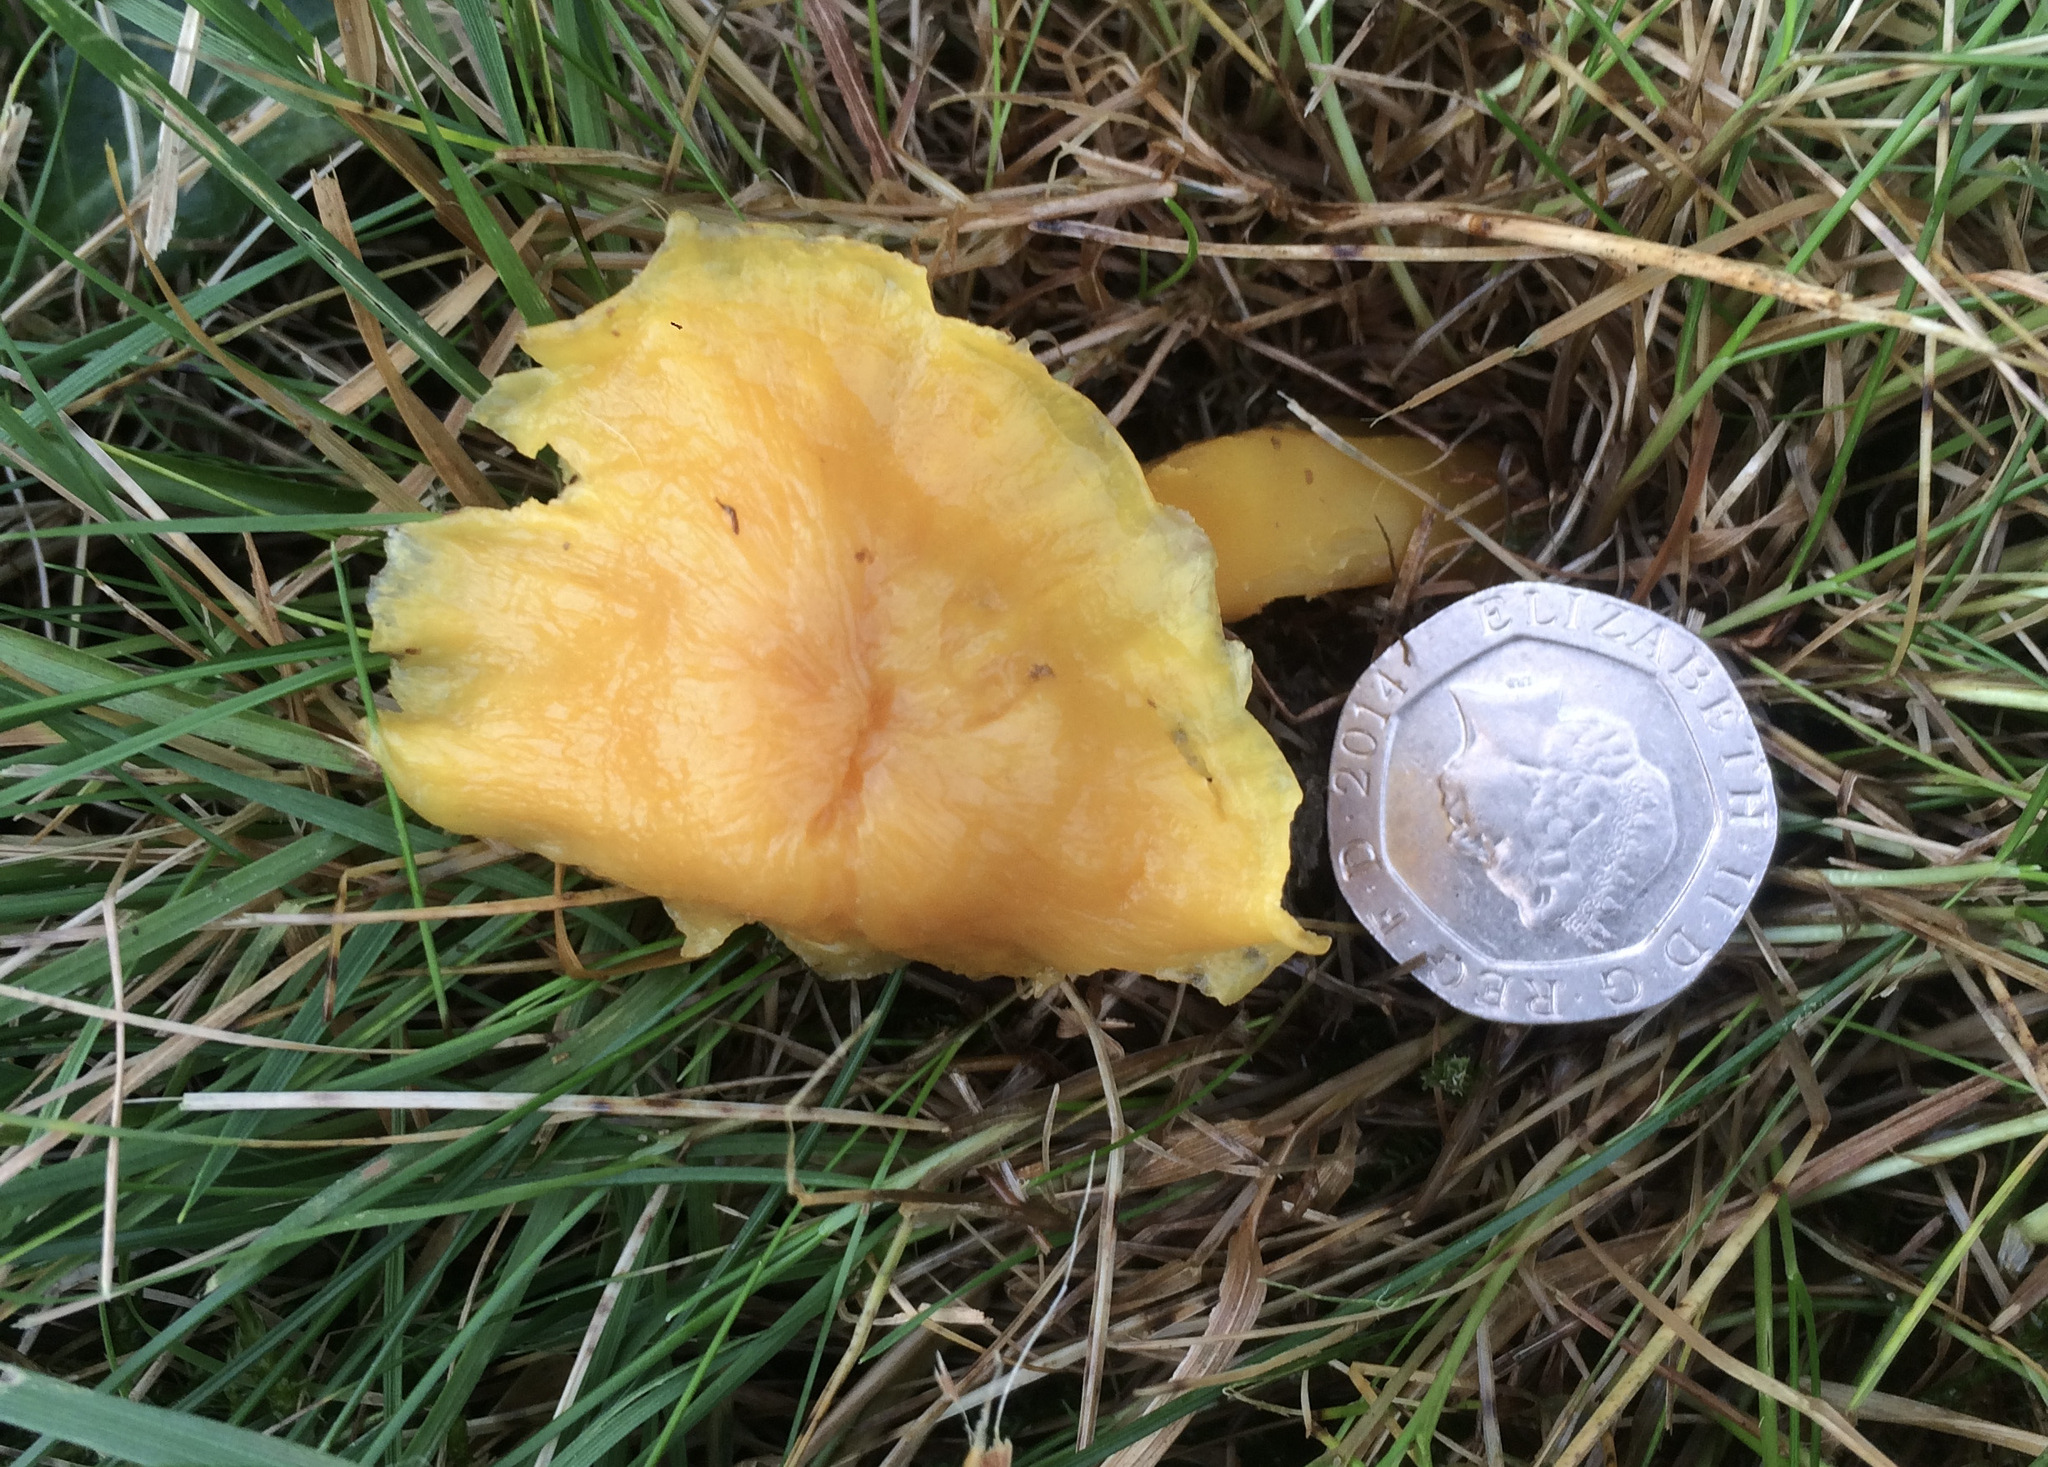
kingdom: Fungi
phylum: Basidiomycota
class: Agaricomycetes
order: Agaricales
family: Hygrophoraceae
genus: Hygrocybe
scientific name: Hygrocybe quieta
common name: Oily waxcap
